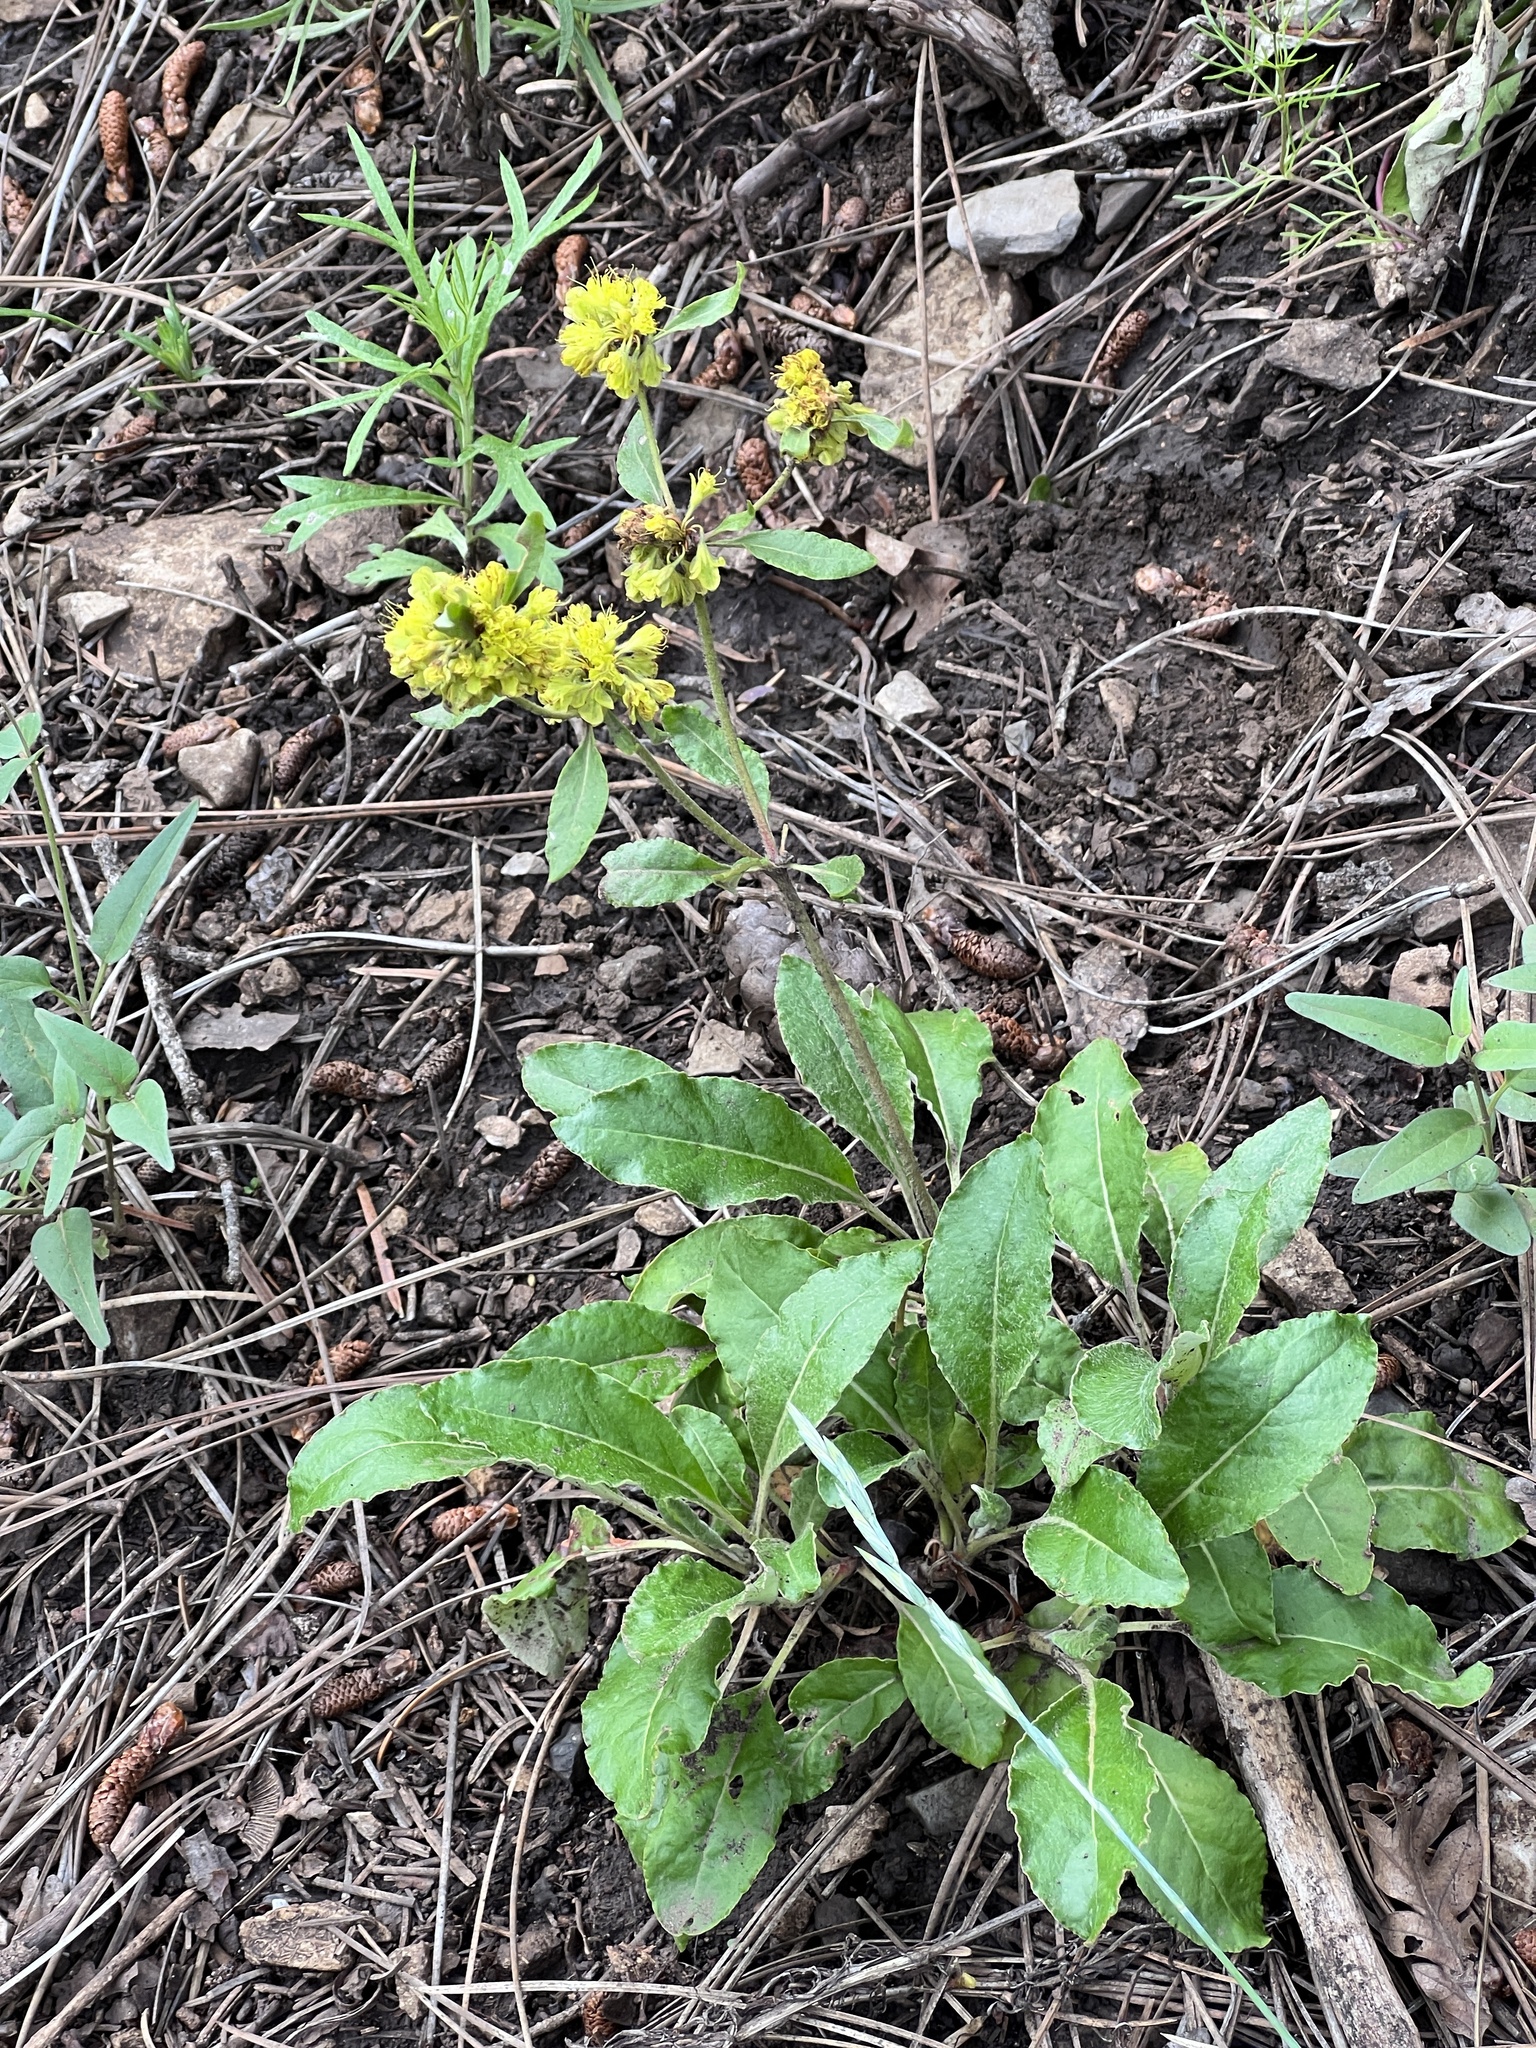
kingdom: Plantae
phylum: Tracheophyta
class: Magnoliopsida
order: Caryophyllales
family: Polygonaceae
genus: Eriogonum
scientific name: Eriogonum wootonii
